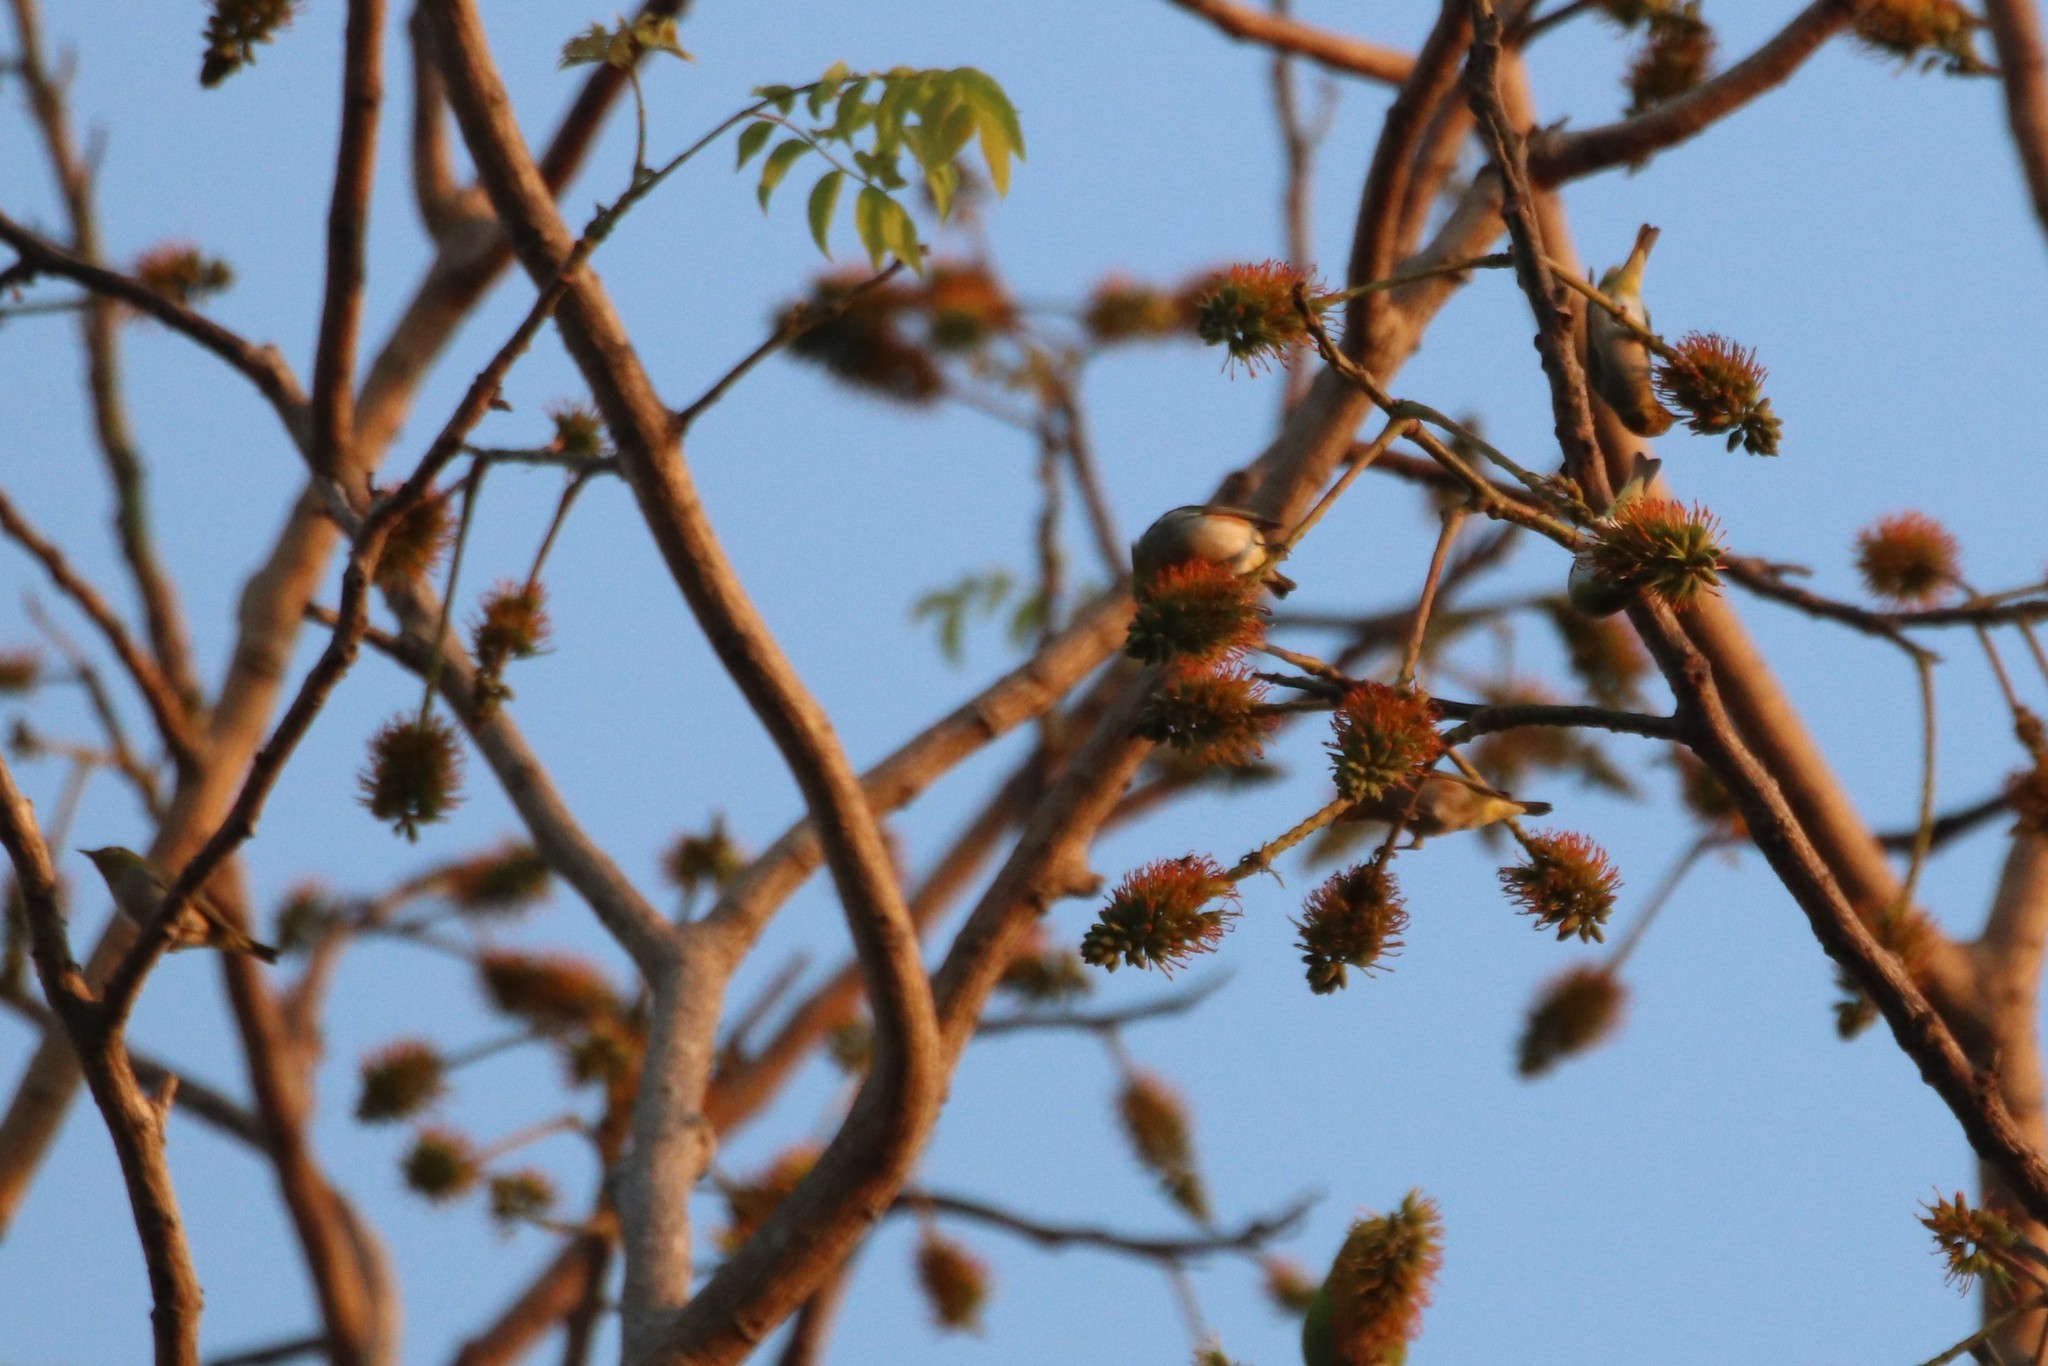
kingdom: Animalia
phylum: Chordata
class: Aves
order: Passeriformes
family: Zosteropidae
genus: Zosterops
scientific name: Zosterops erythropleurus
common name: Chestnut-flanked white-eye
